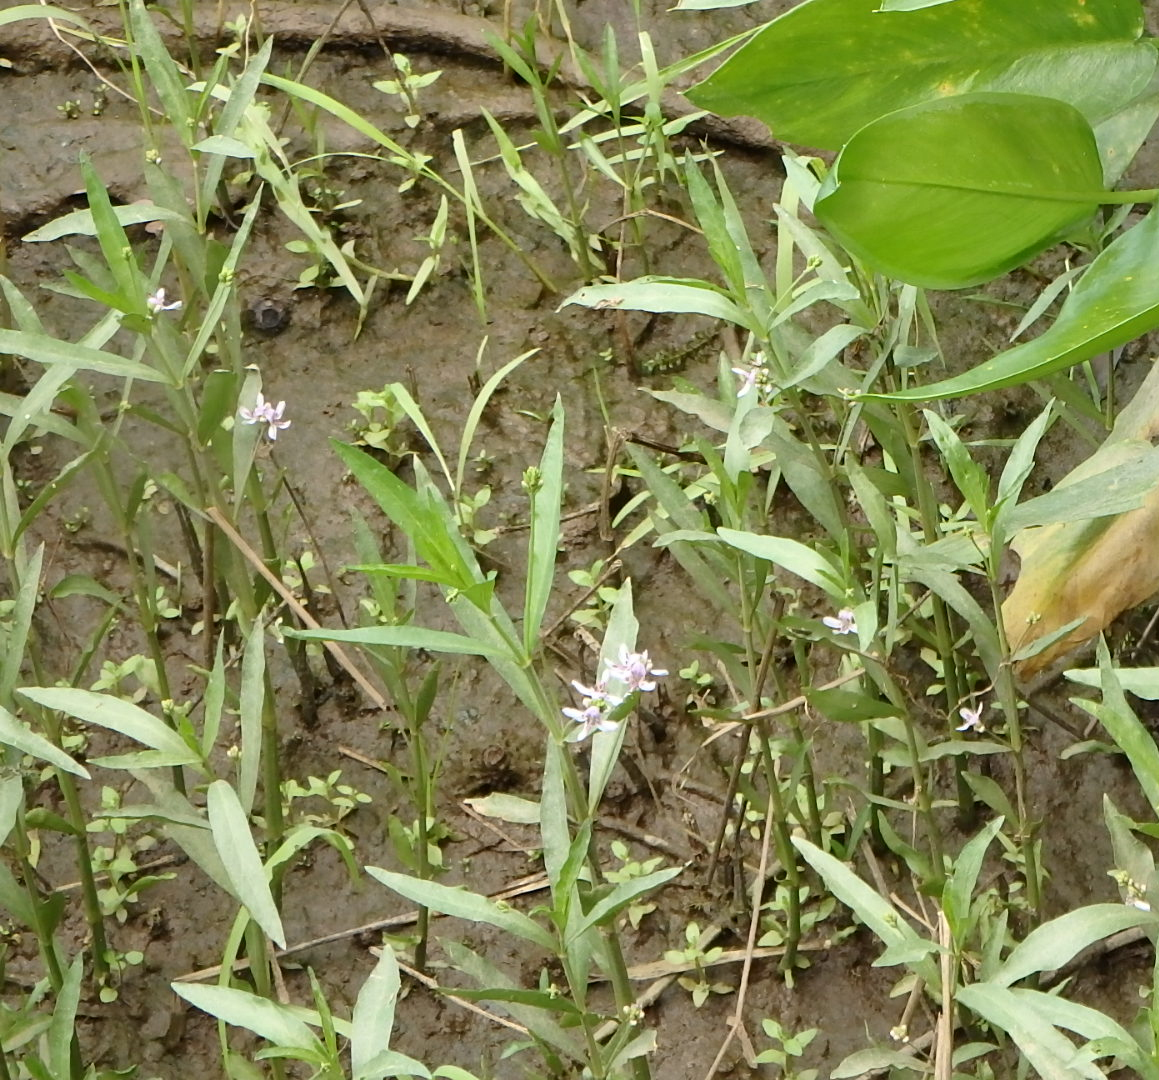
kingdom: Plantae
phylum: Tracheophyta
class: Magnoliopsida
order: Lamiales
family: Acanthaceae
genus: Dianthera
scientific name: Dianthera americana
